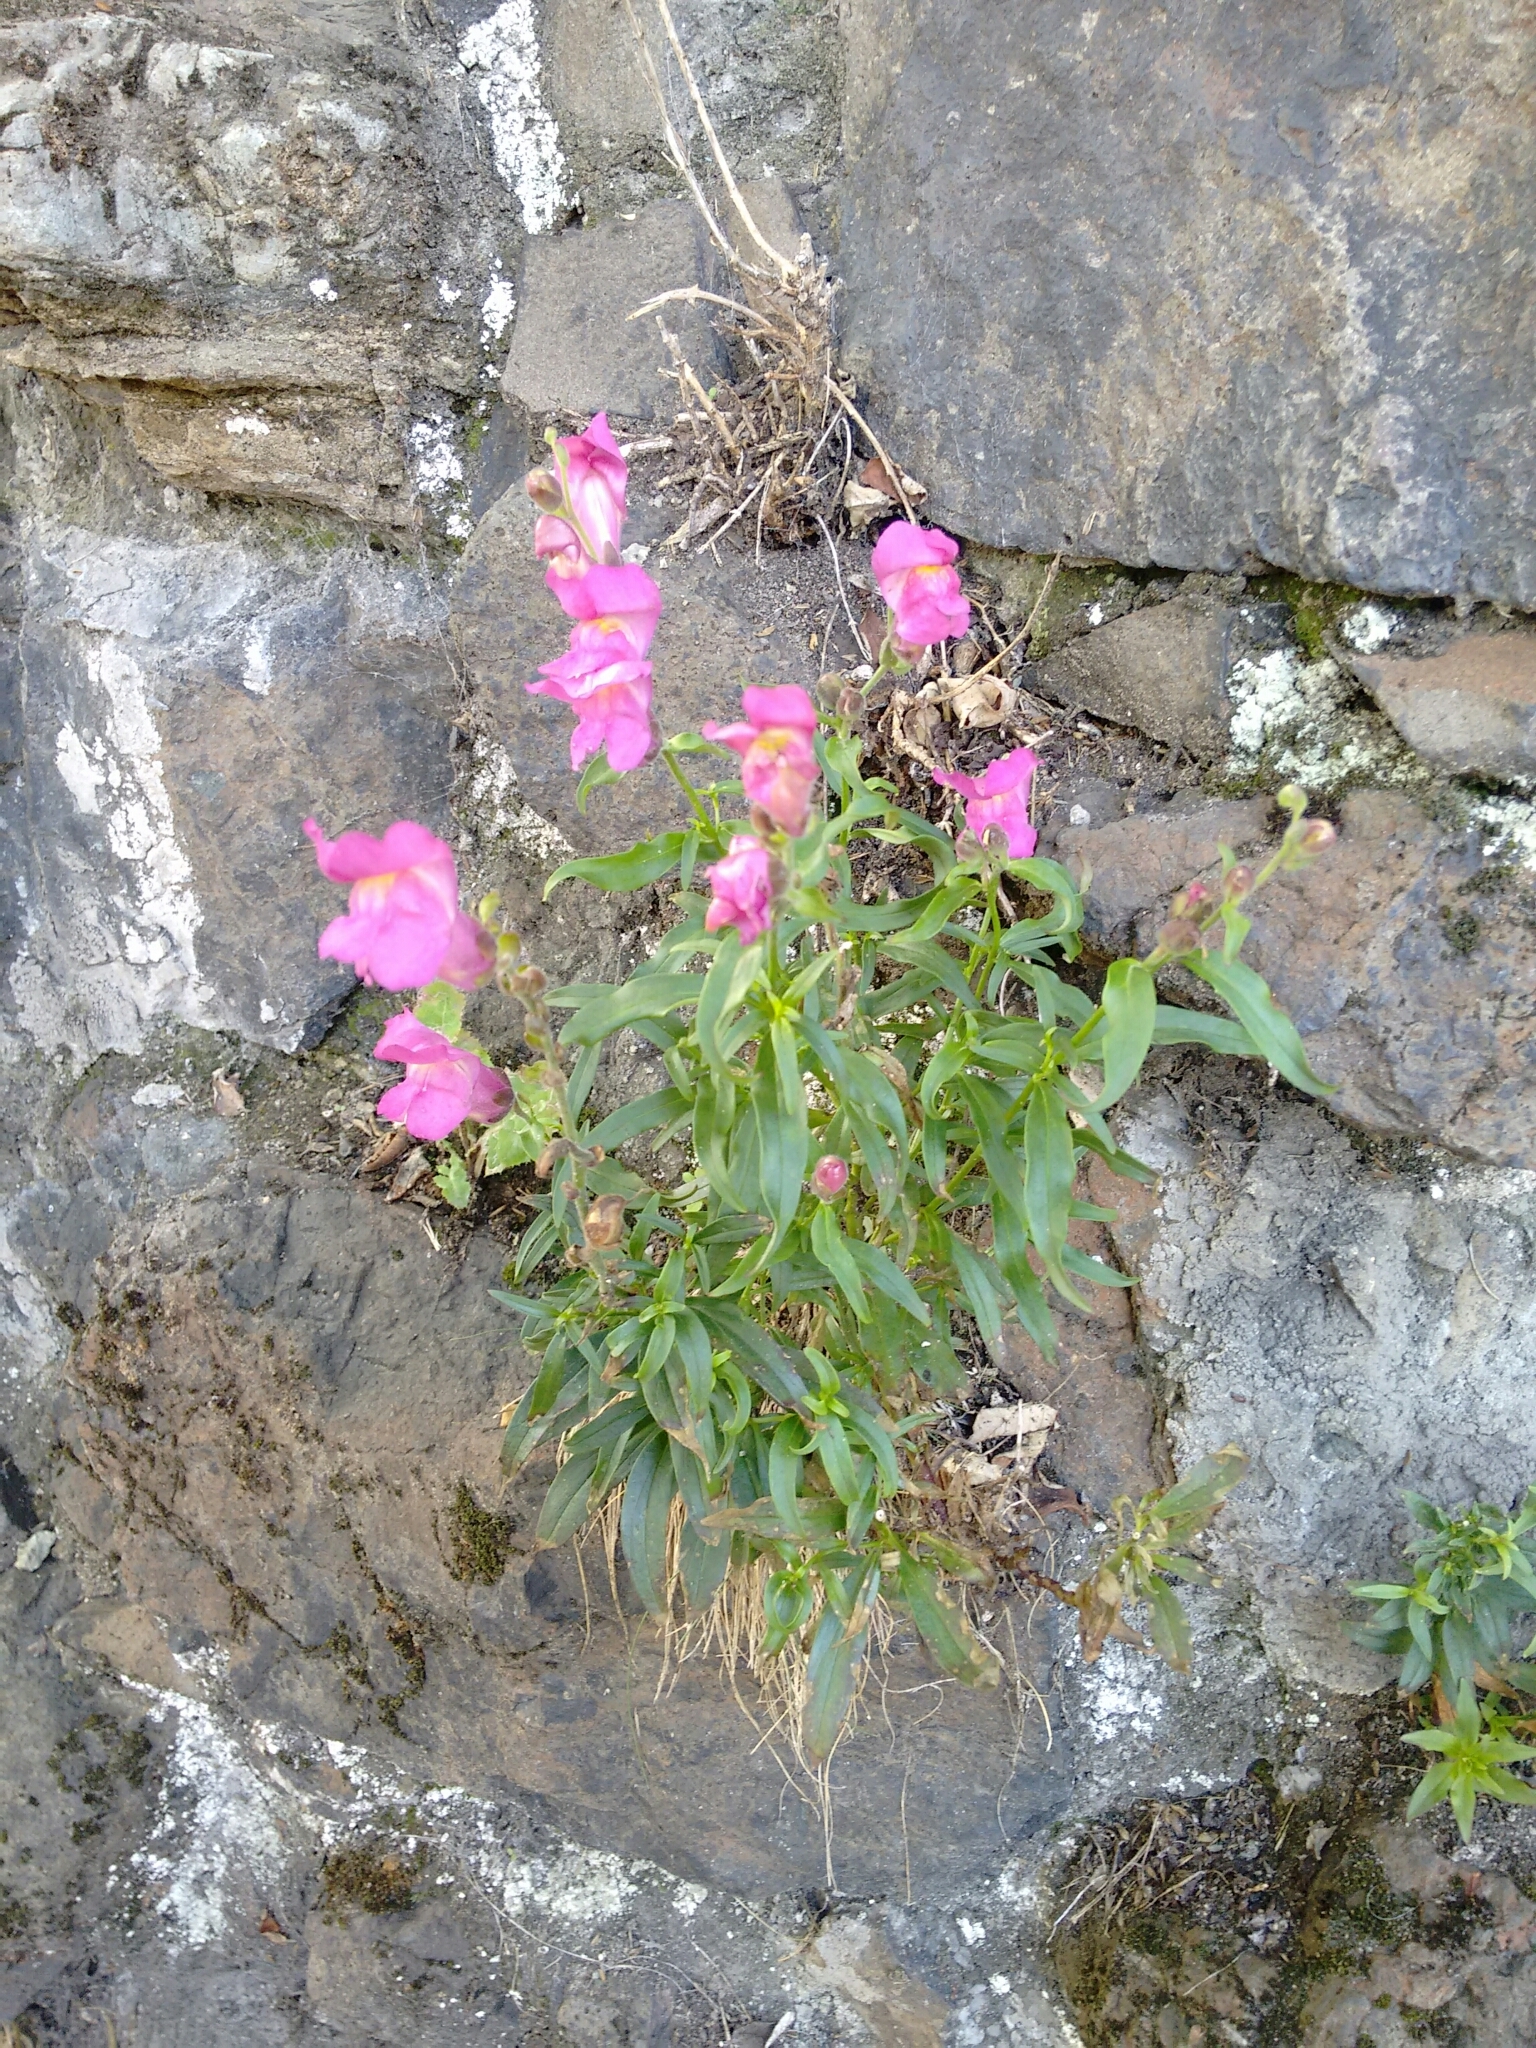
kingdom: Plantae
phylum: Tracheophyta
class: Magnoliopsida
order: Lamiales
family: Plantaginaceae
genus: Antirrhinum
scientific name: Antirrhinum majus
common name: Snapdragon
